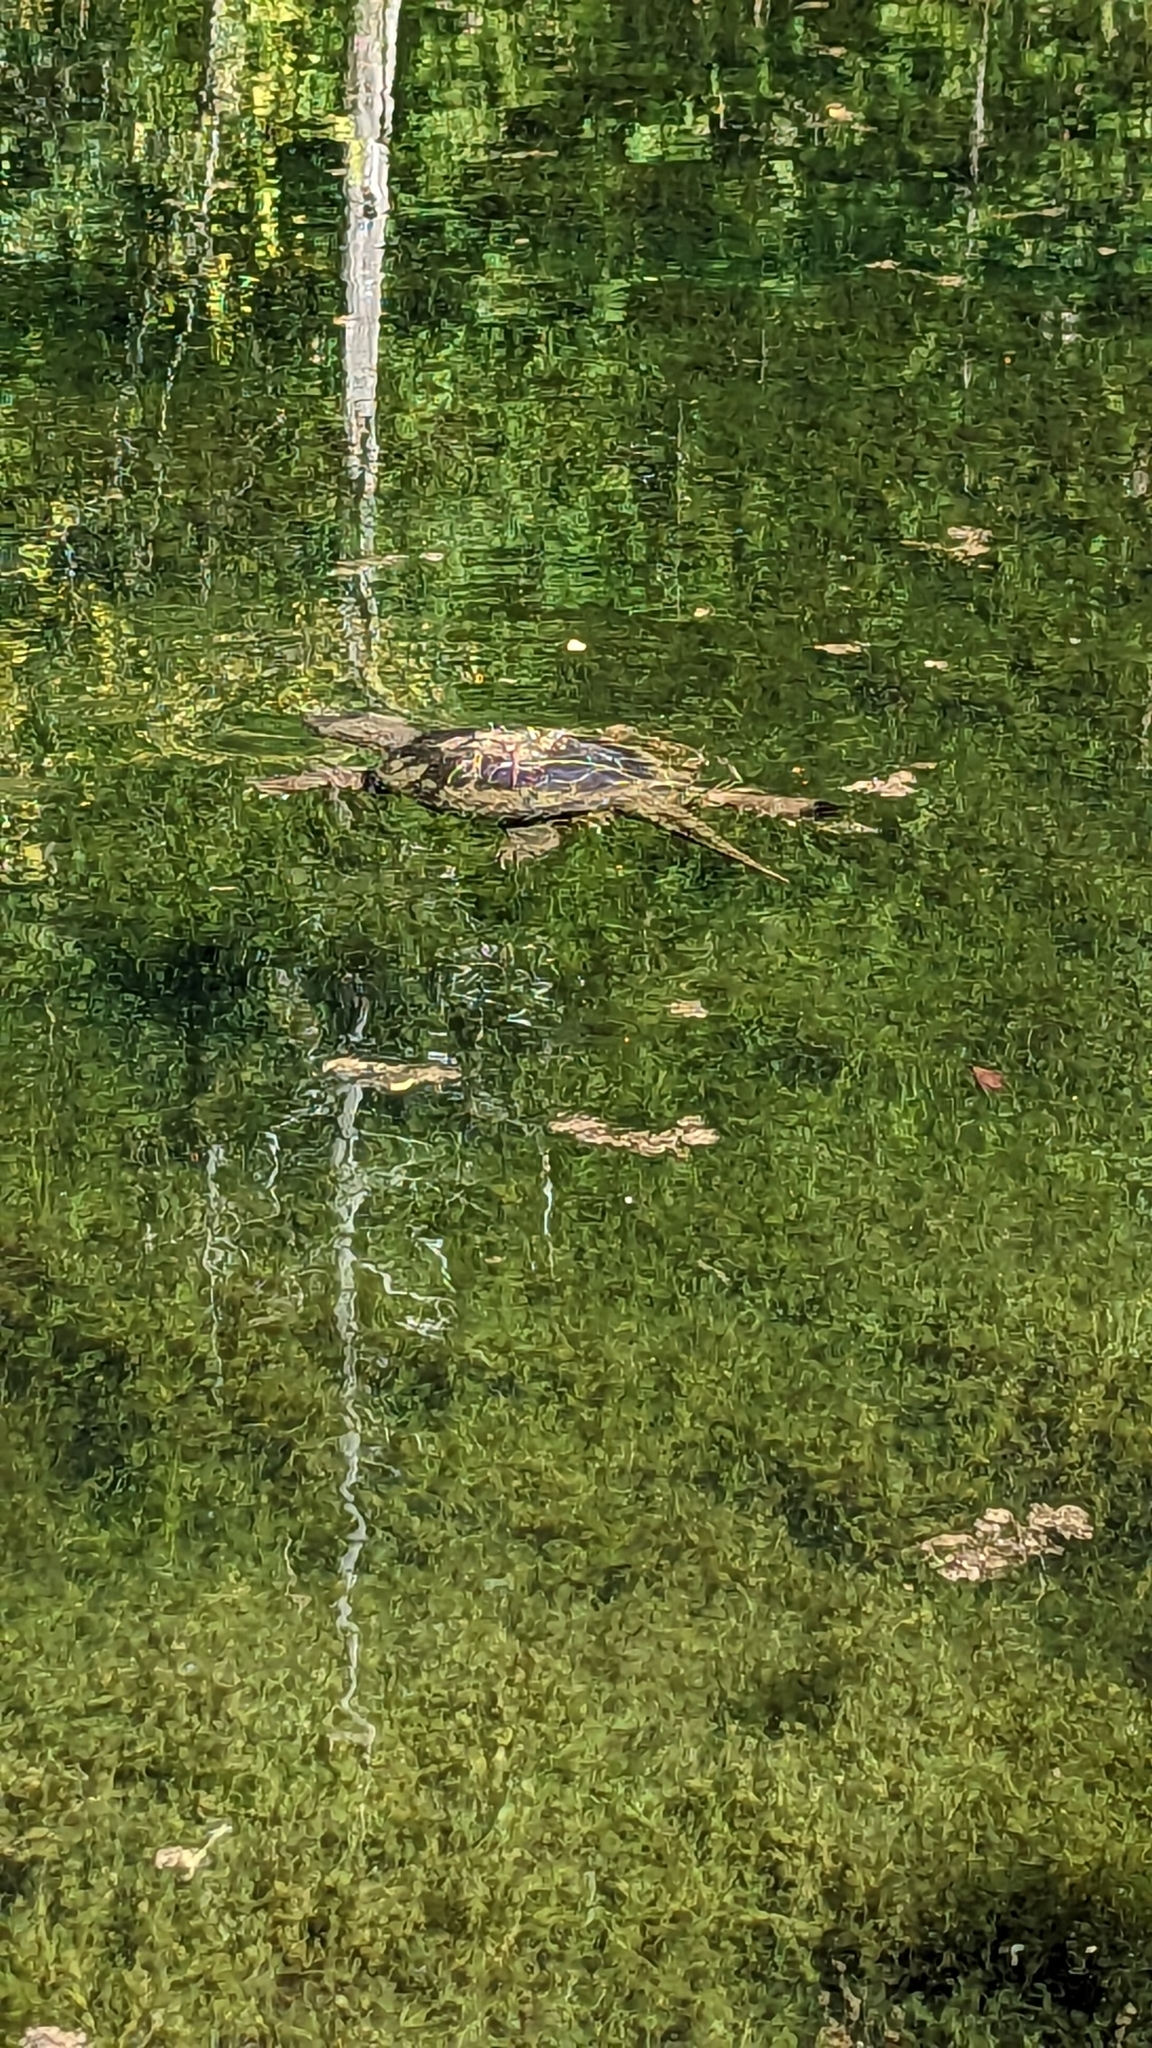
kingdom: Animalia
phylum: Chordata
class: Testudines
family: Chelydridae
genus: Chelydra
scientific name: Chelydra serpentina
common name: Common snapping turtle
